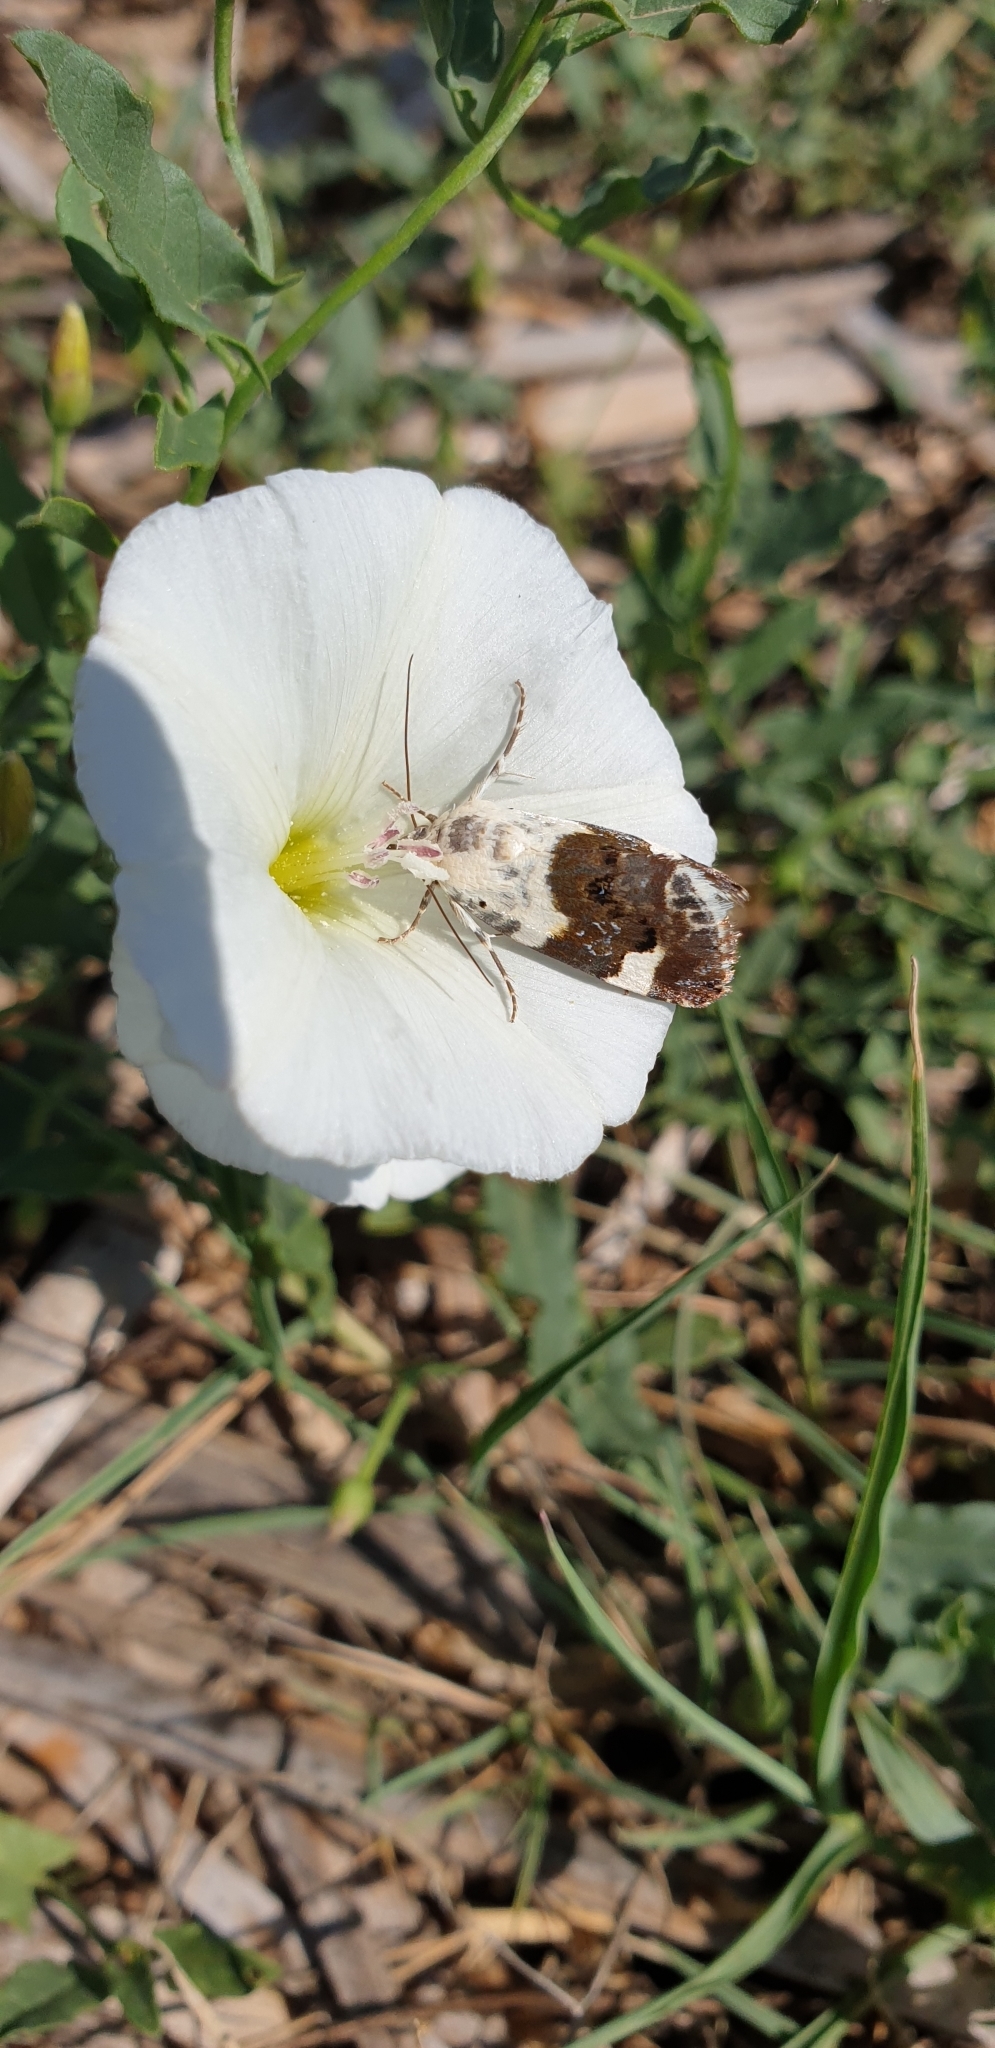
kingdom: Animalia
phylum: Arthropoda
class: Insecta
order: Lepidoptera
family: Noctuidae
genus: Acontia
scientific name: Acontia lucida
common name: Pale shoulder
